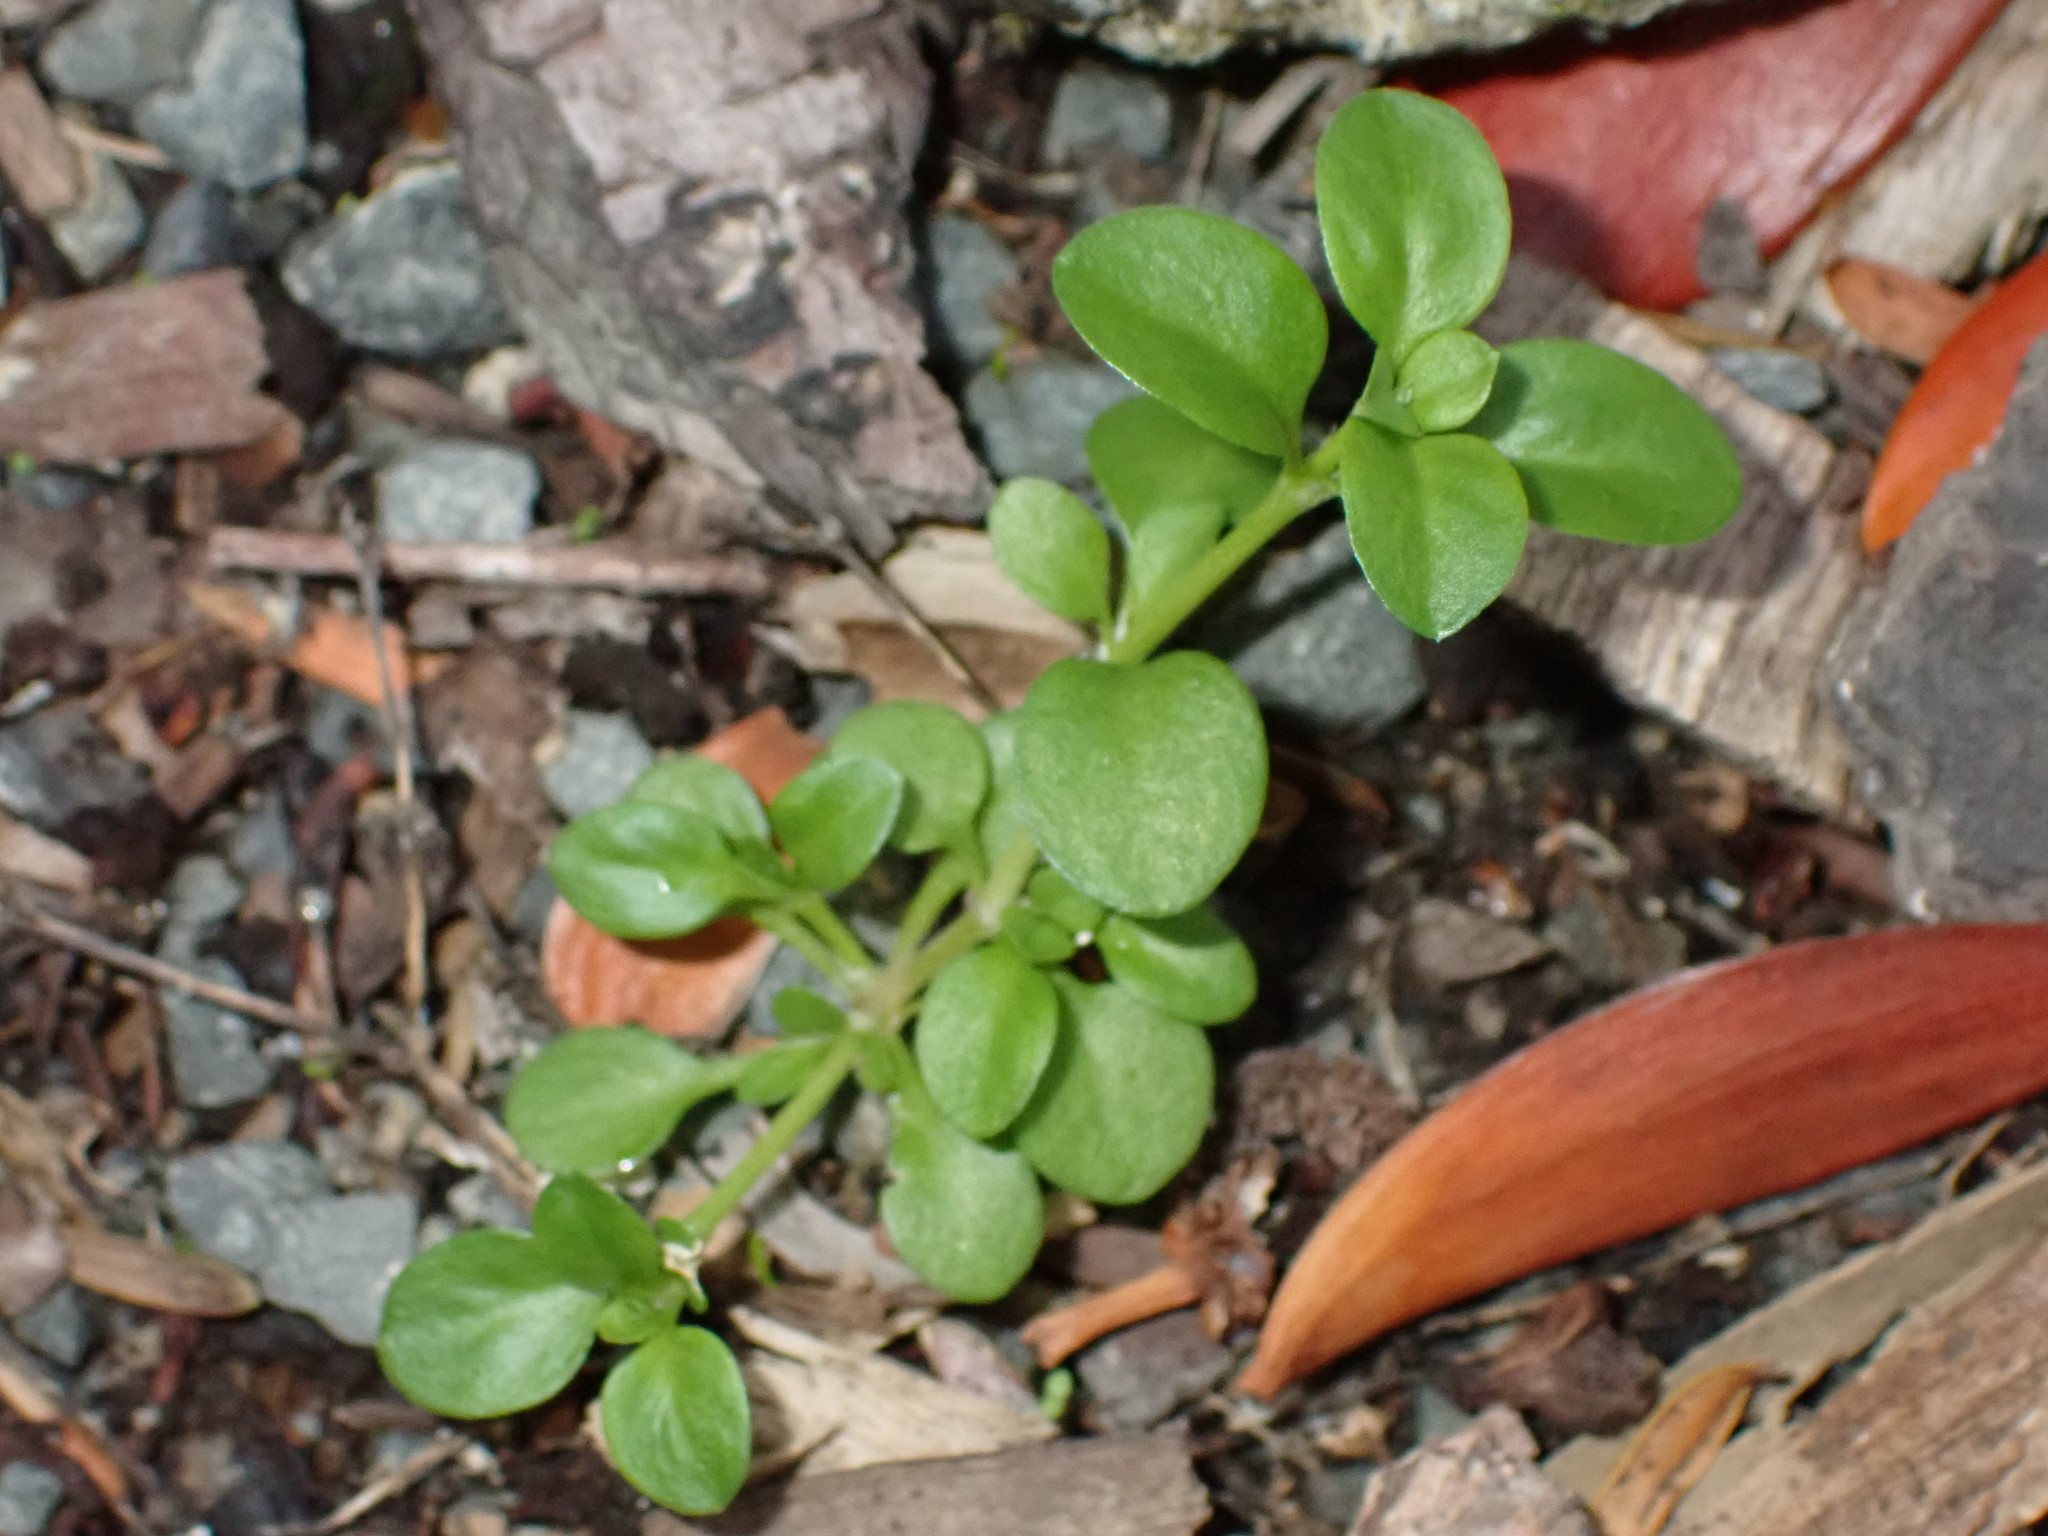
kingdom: Plantae
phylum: Tracheophyta
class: Magnoliopsida
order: Lamiales
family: Plantaginaceae
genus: Veronica
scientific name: Veronica serpyllifolia
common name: Thyme-leaved speedwell
